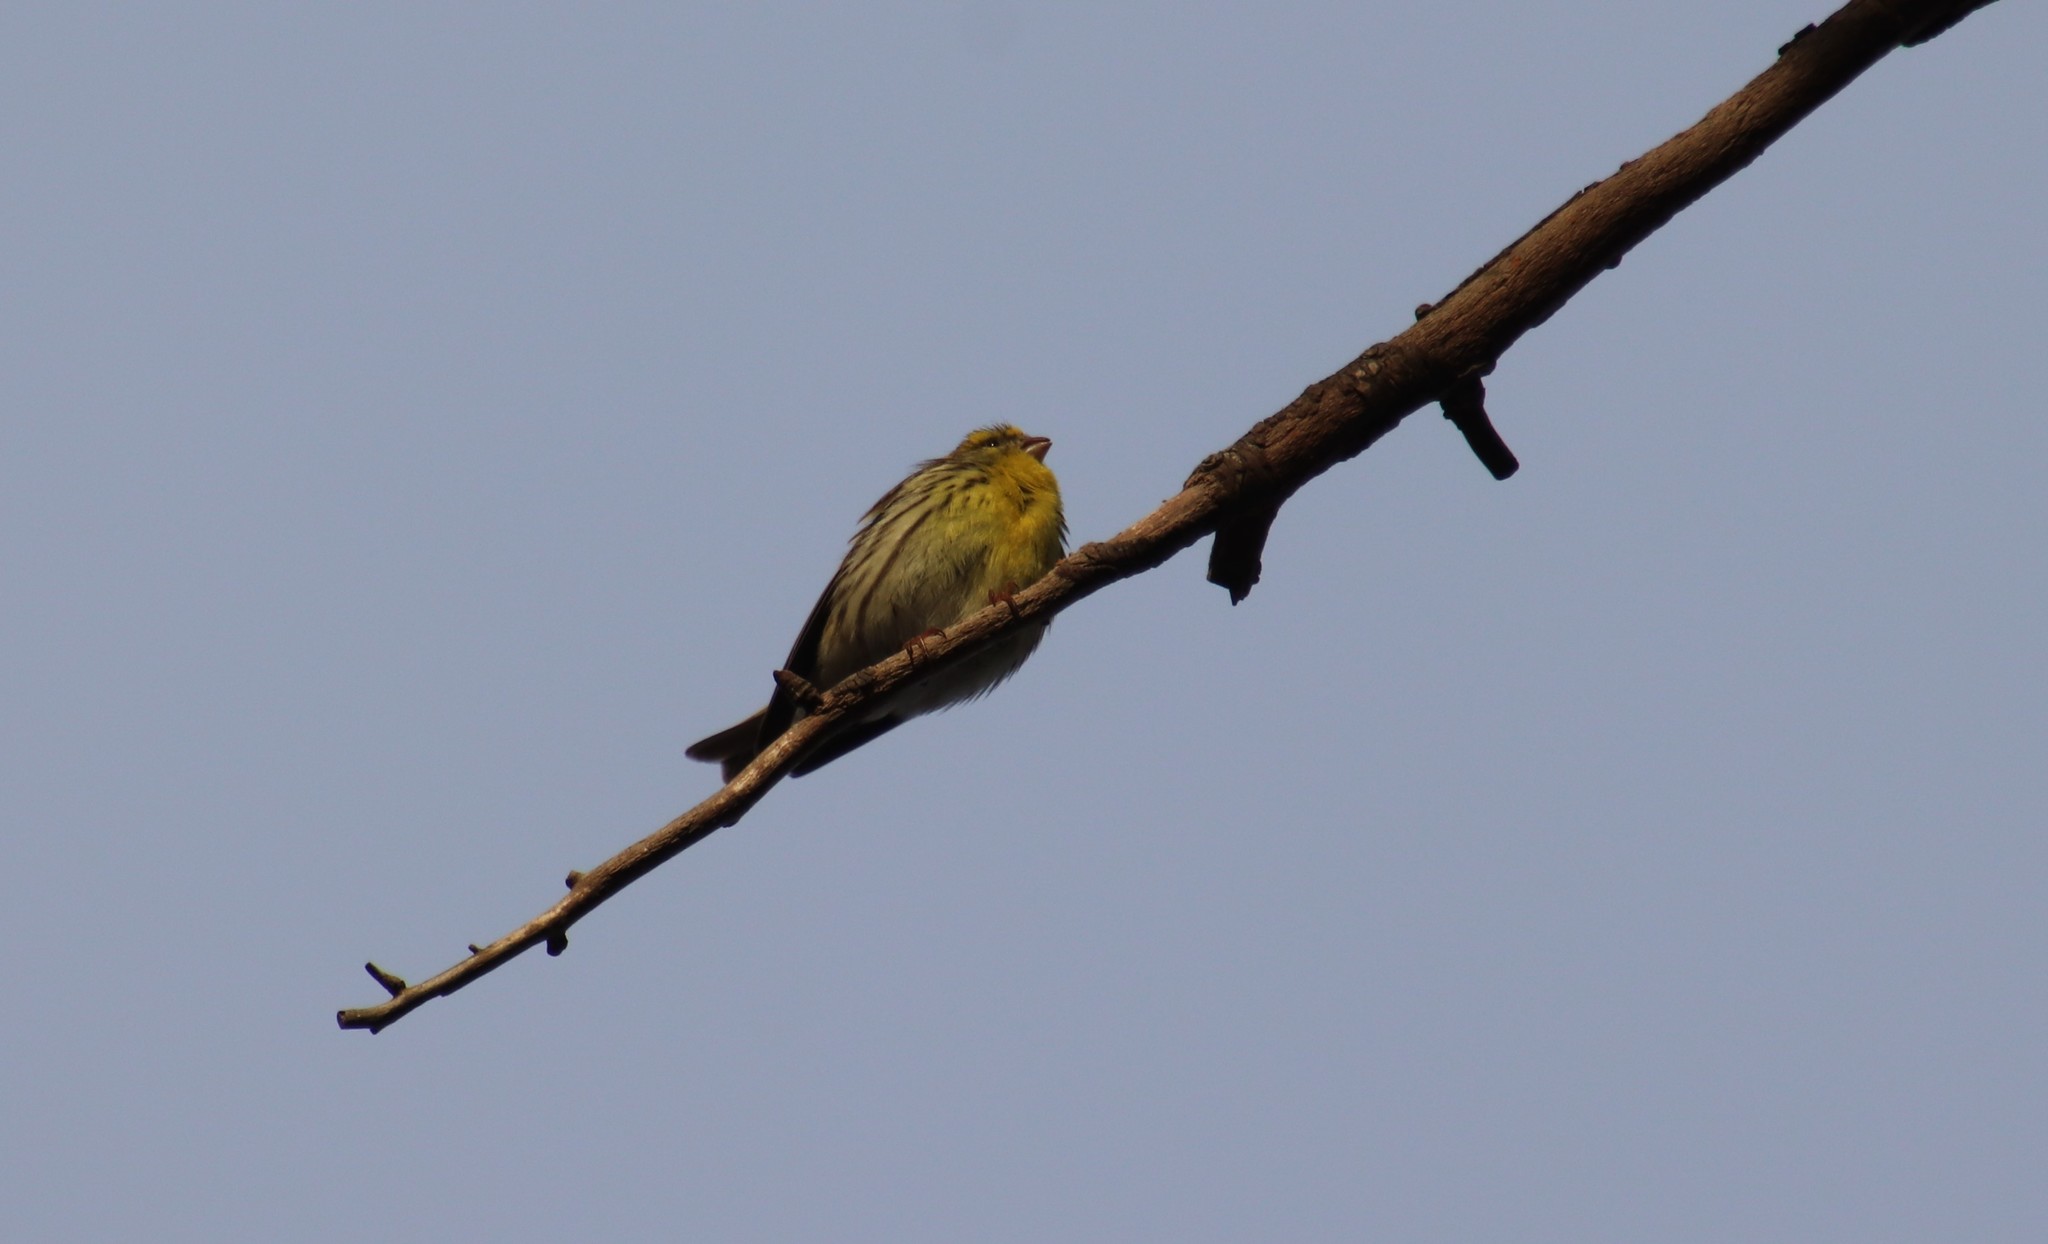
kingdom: Animalia
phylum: Chordata
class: Aves
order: Passeriformes
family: Fringillidae
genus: Serinus
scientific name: Serinus serinus
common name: European serin
